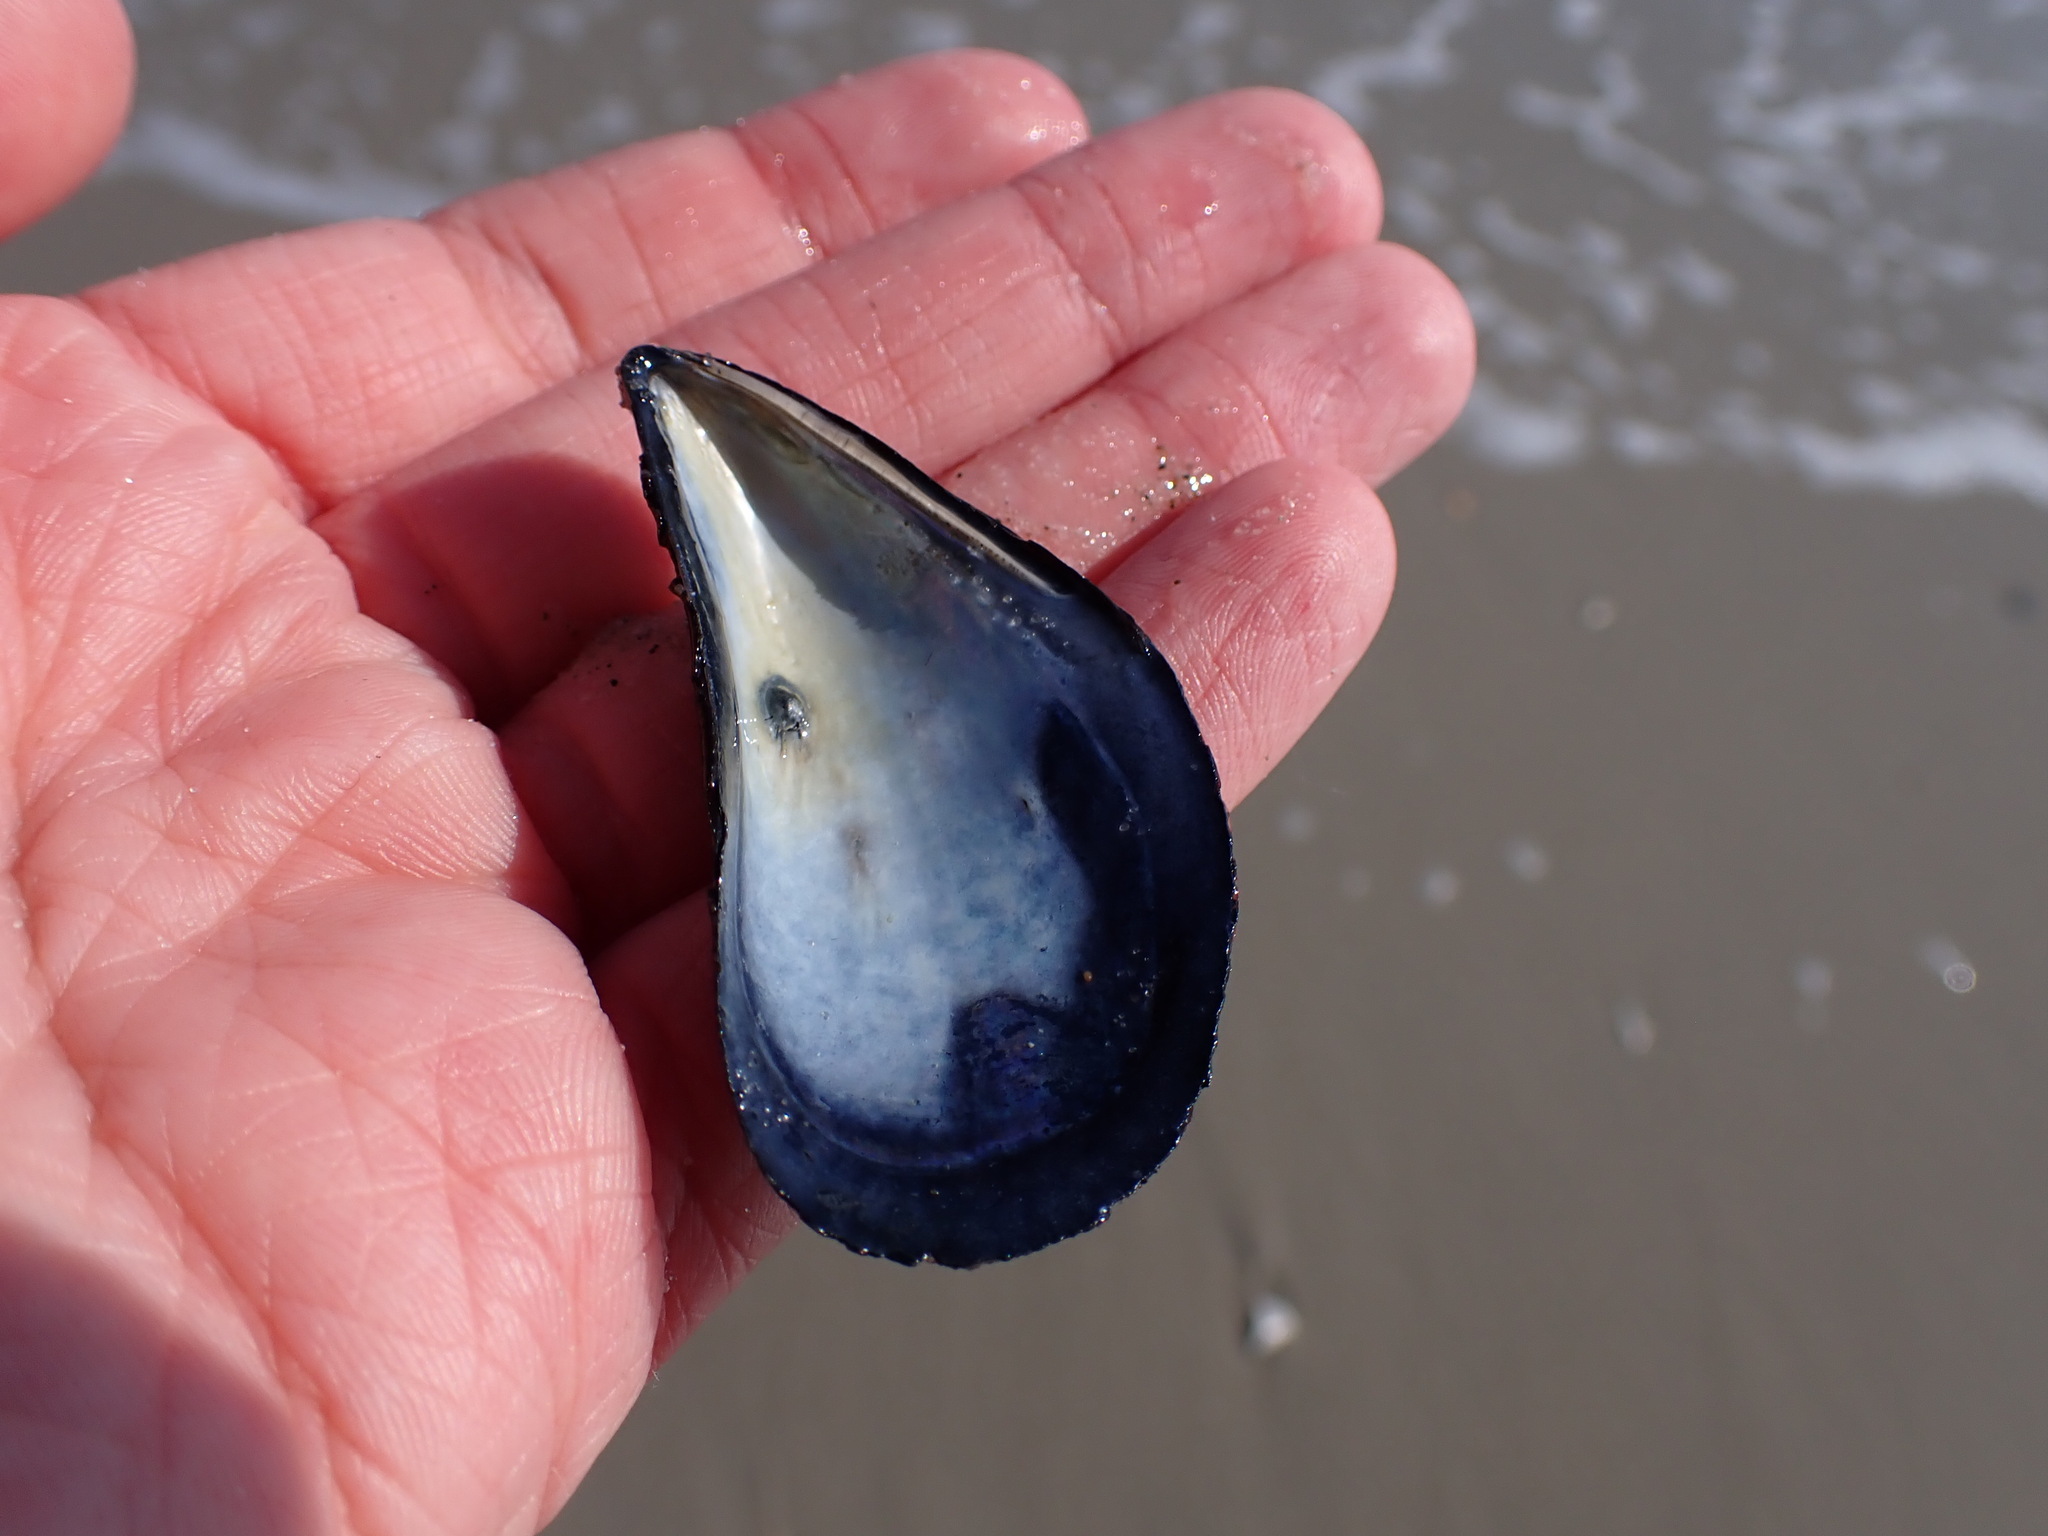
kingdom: Animalia
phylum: Mollusca
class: Bivalvia
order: Mytilida
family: Mytilidae
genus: Mytilus
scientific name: Mytilus edulis
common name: Blue mussel
